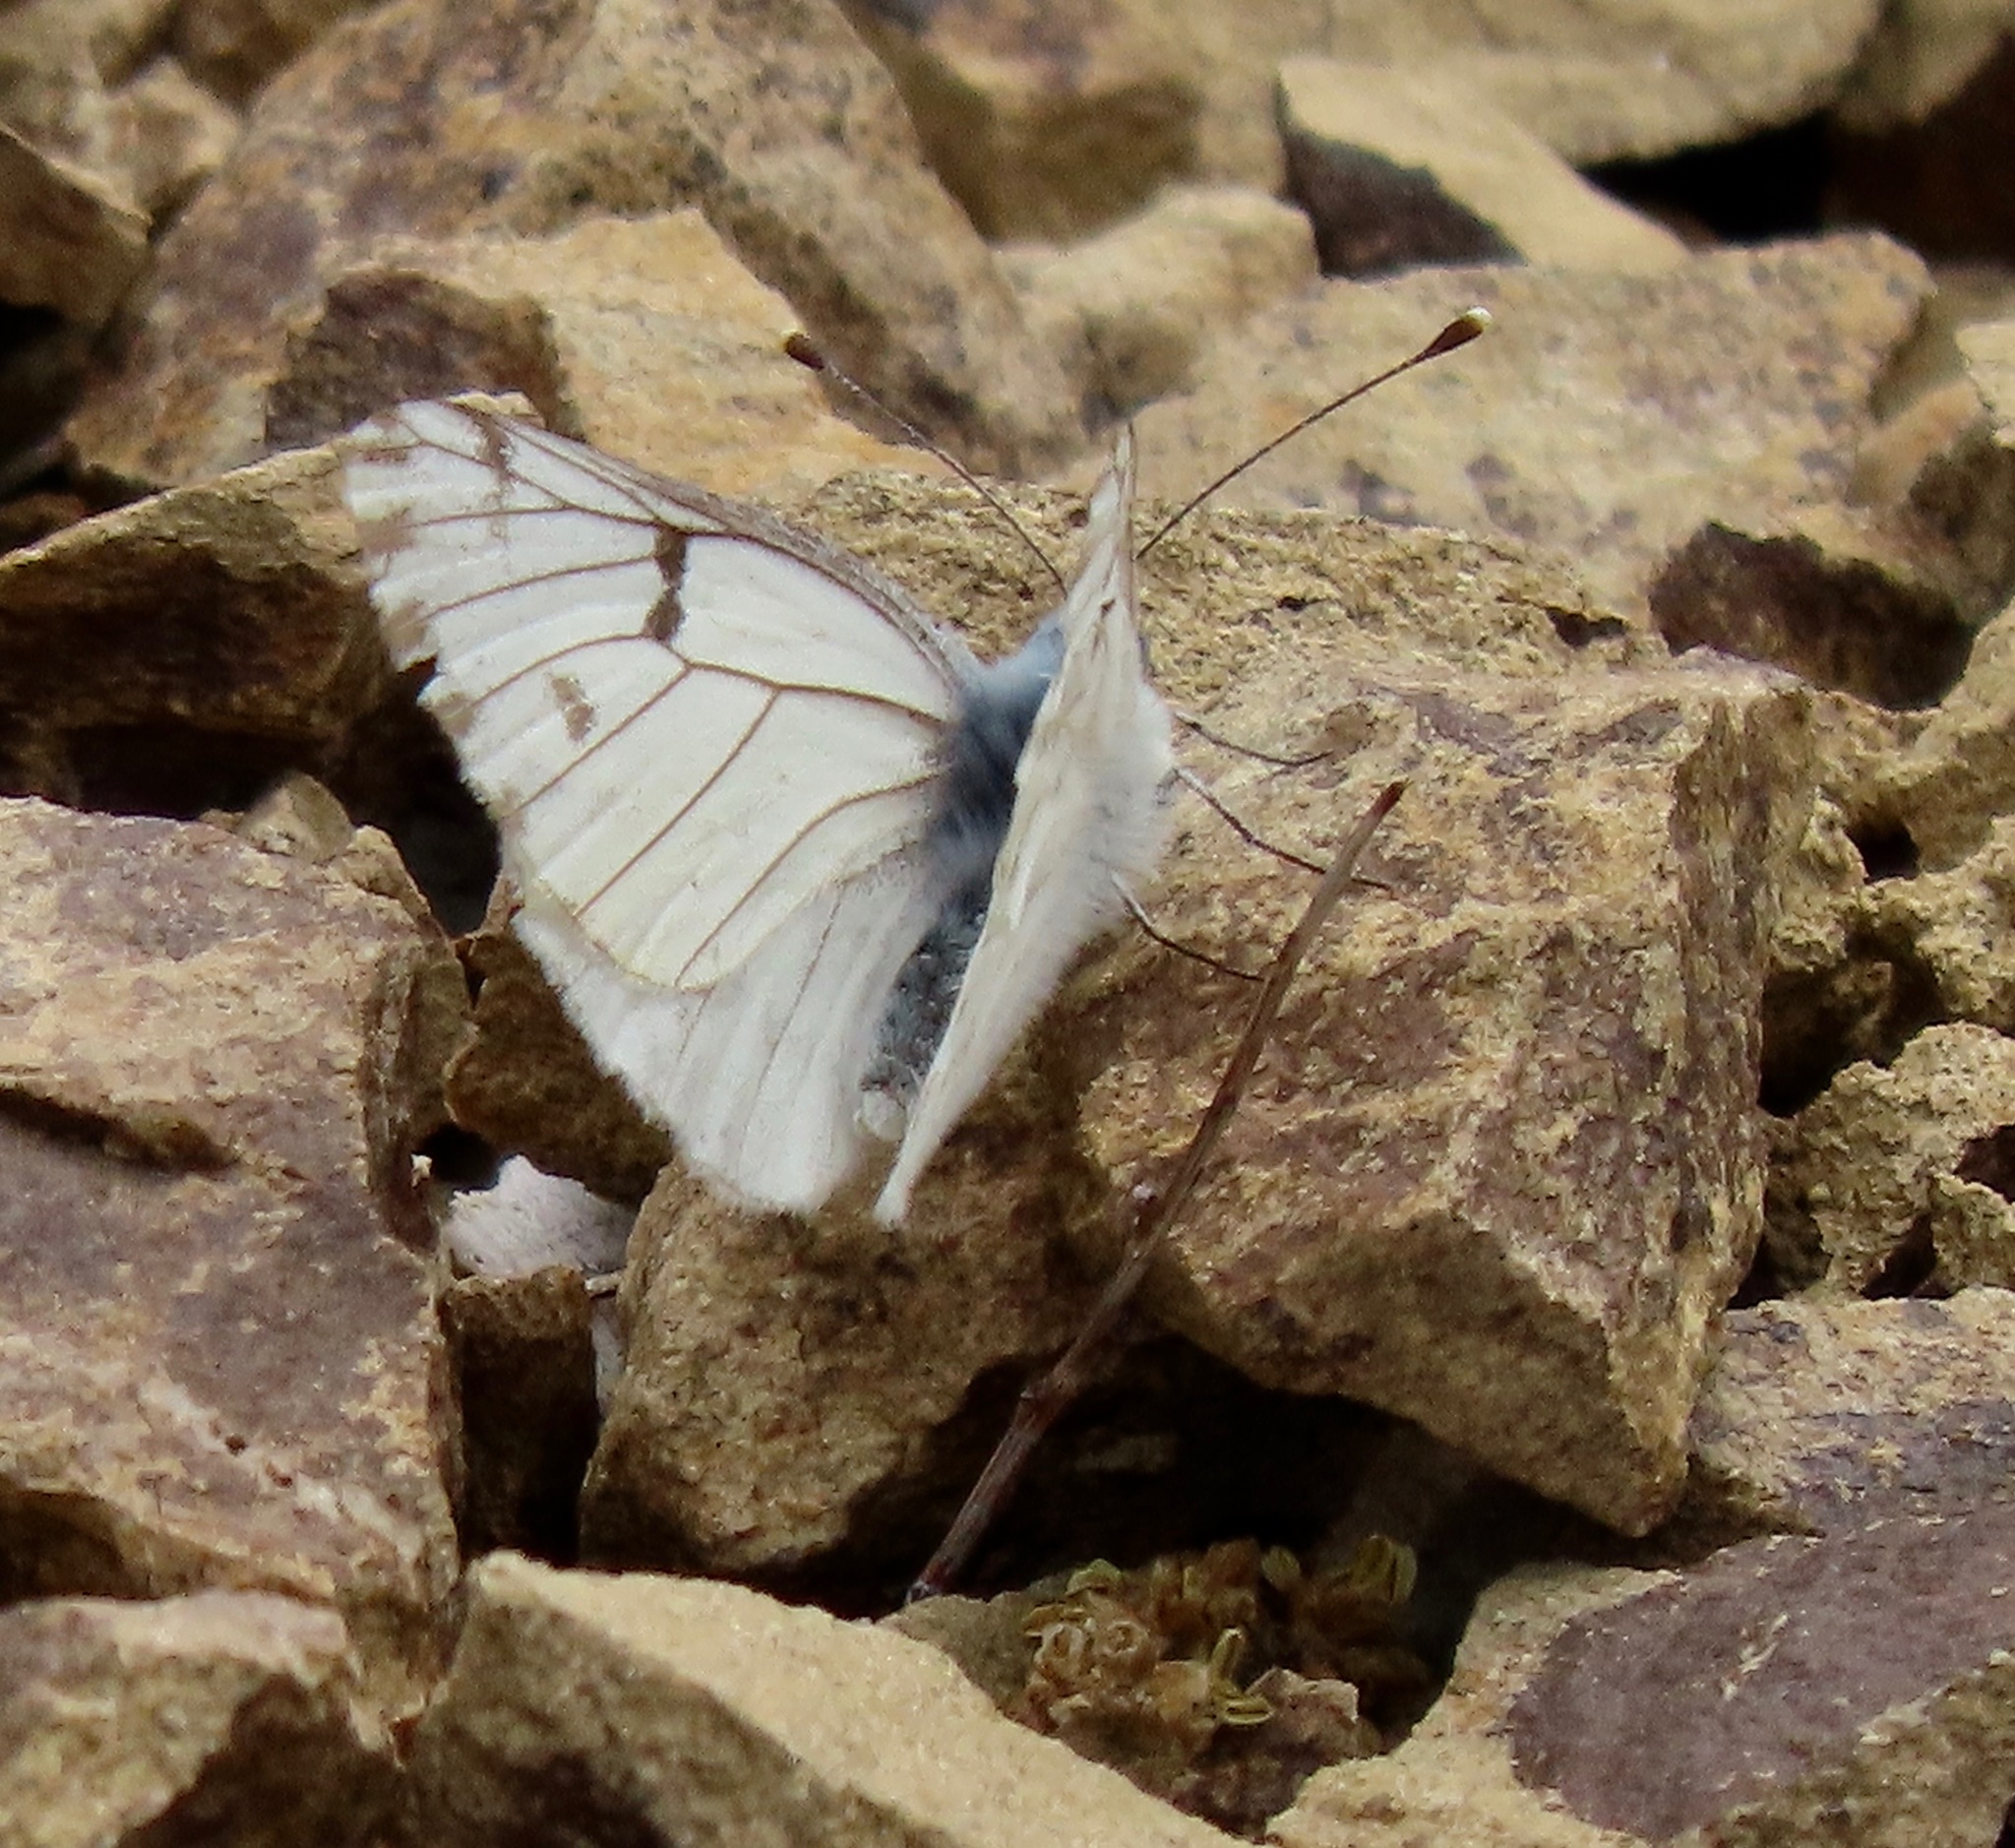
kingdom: Animalia
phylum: Arthropoda
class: Insecta
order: Lepidoptera
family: Pieridae
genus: Pontia
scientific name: Pontia sisymbrii
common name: California white
